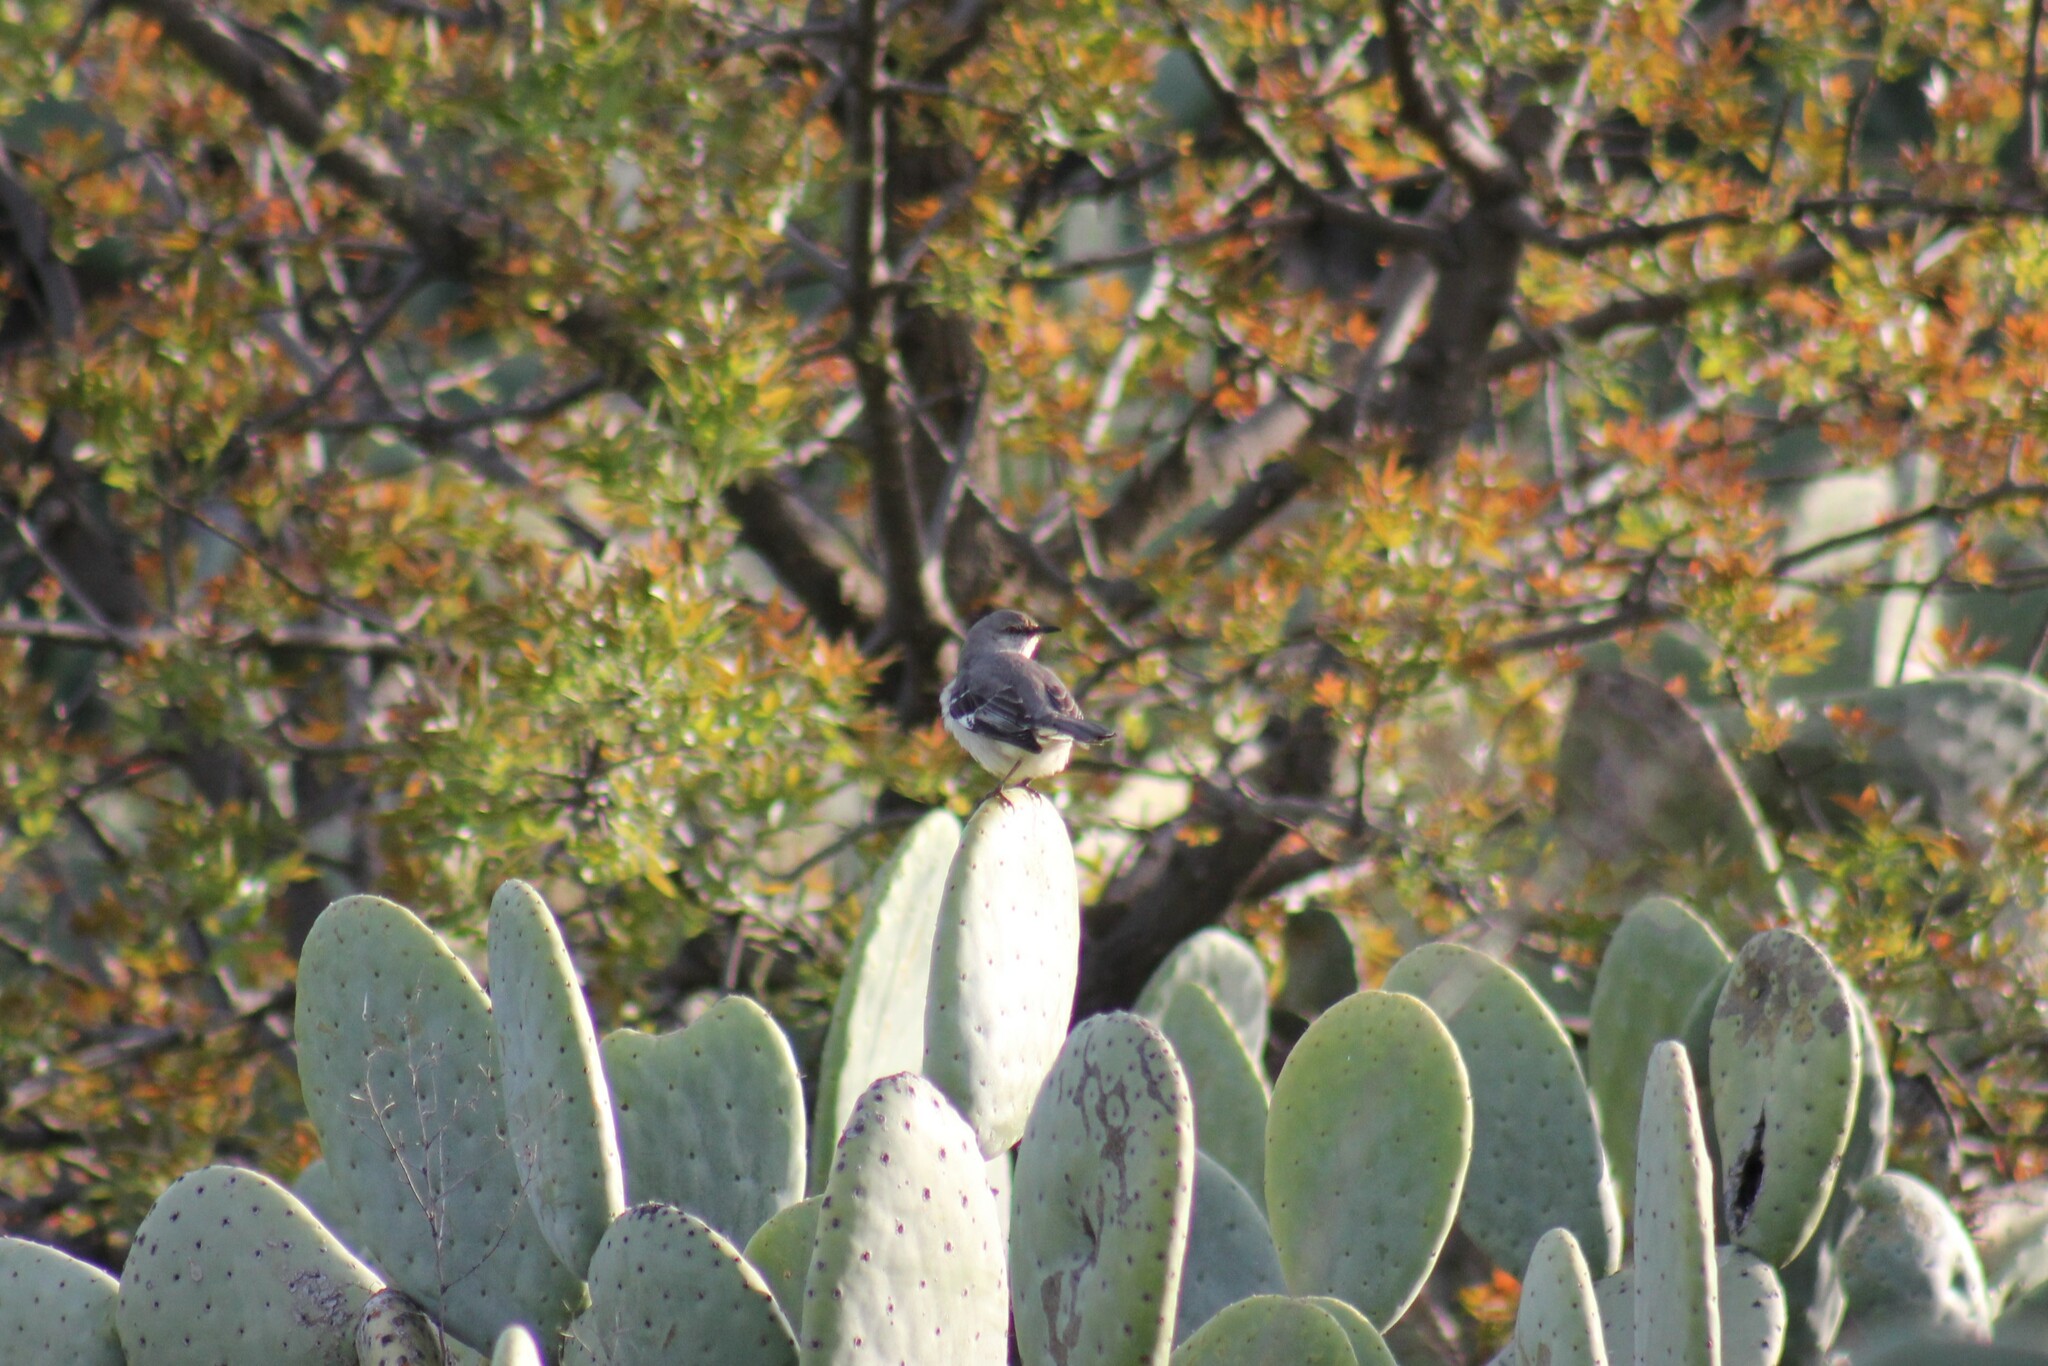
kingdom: Animalia
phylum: Chordata
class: Aves
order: Passeriformes
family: Mimidae
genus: Mimus
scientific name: Mimus polyglottos
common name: Northern mockingbird
